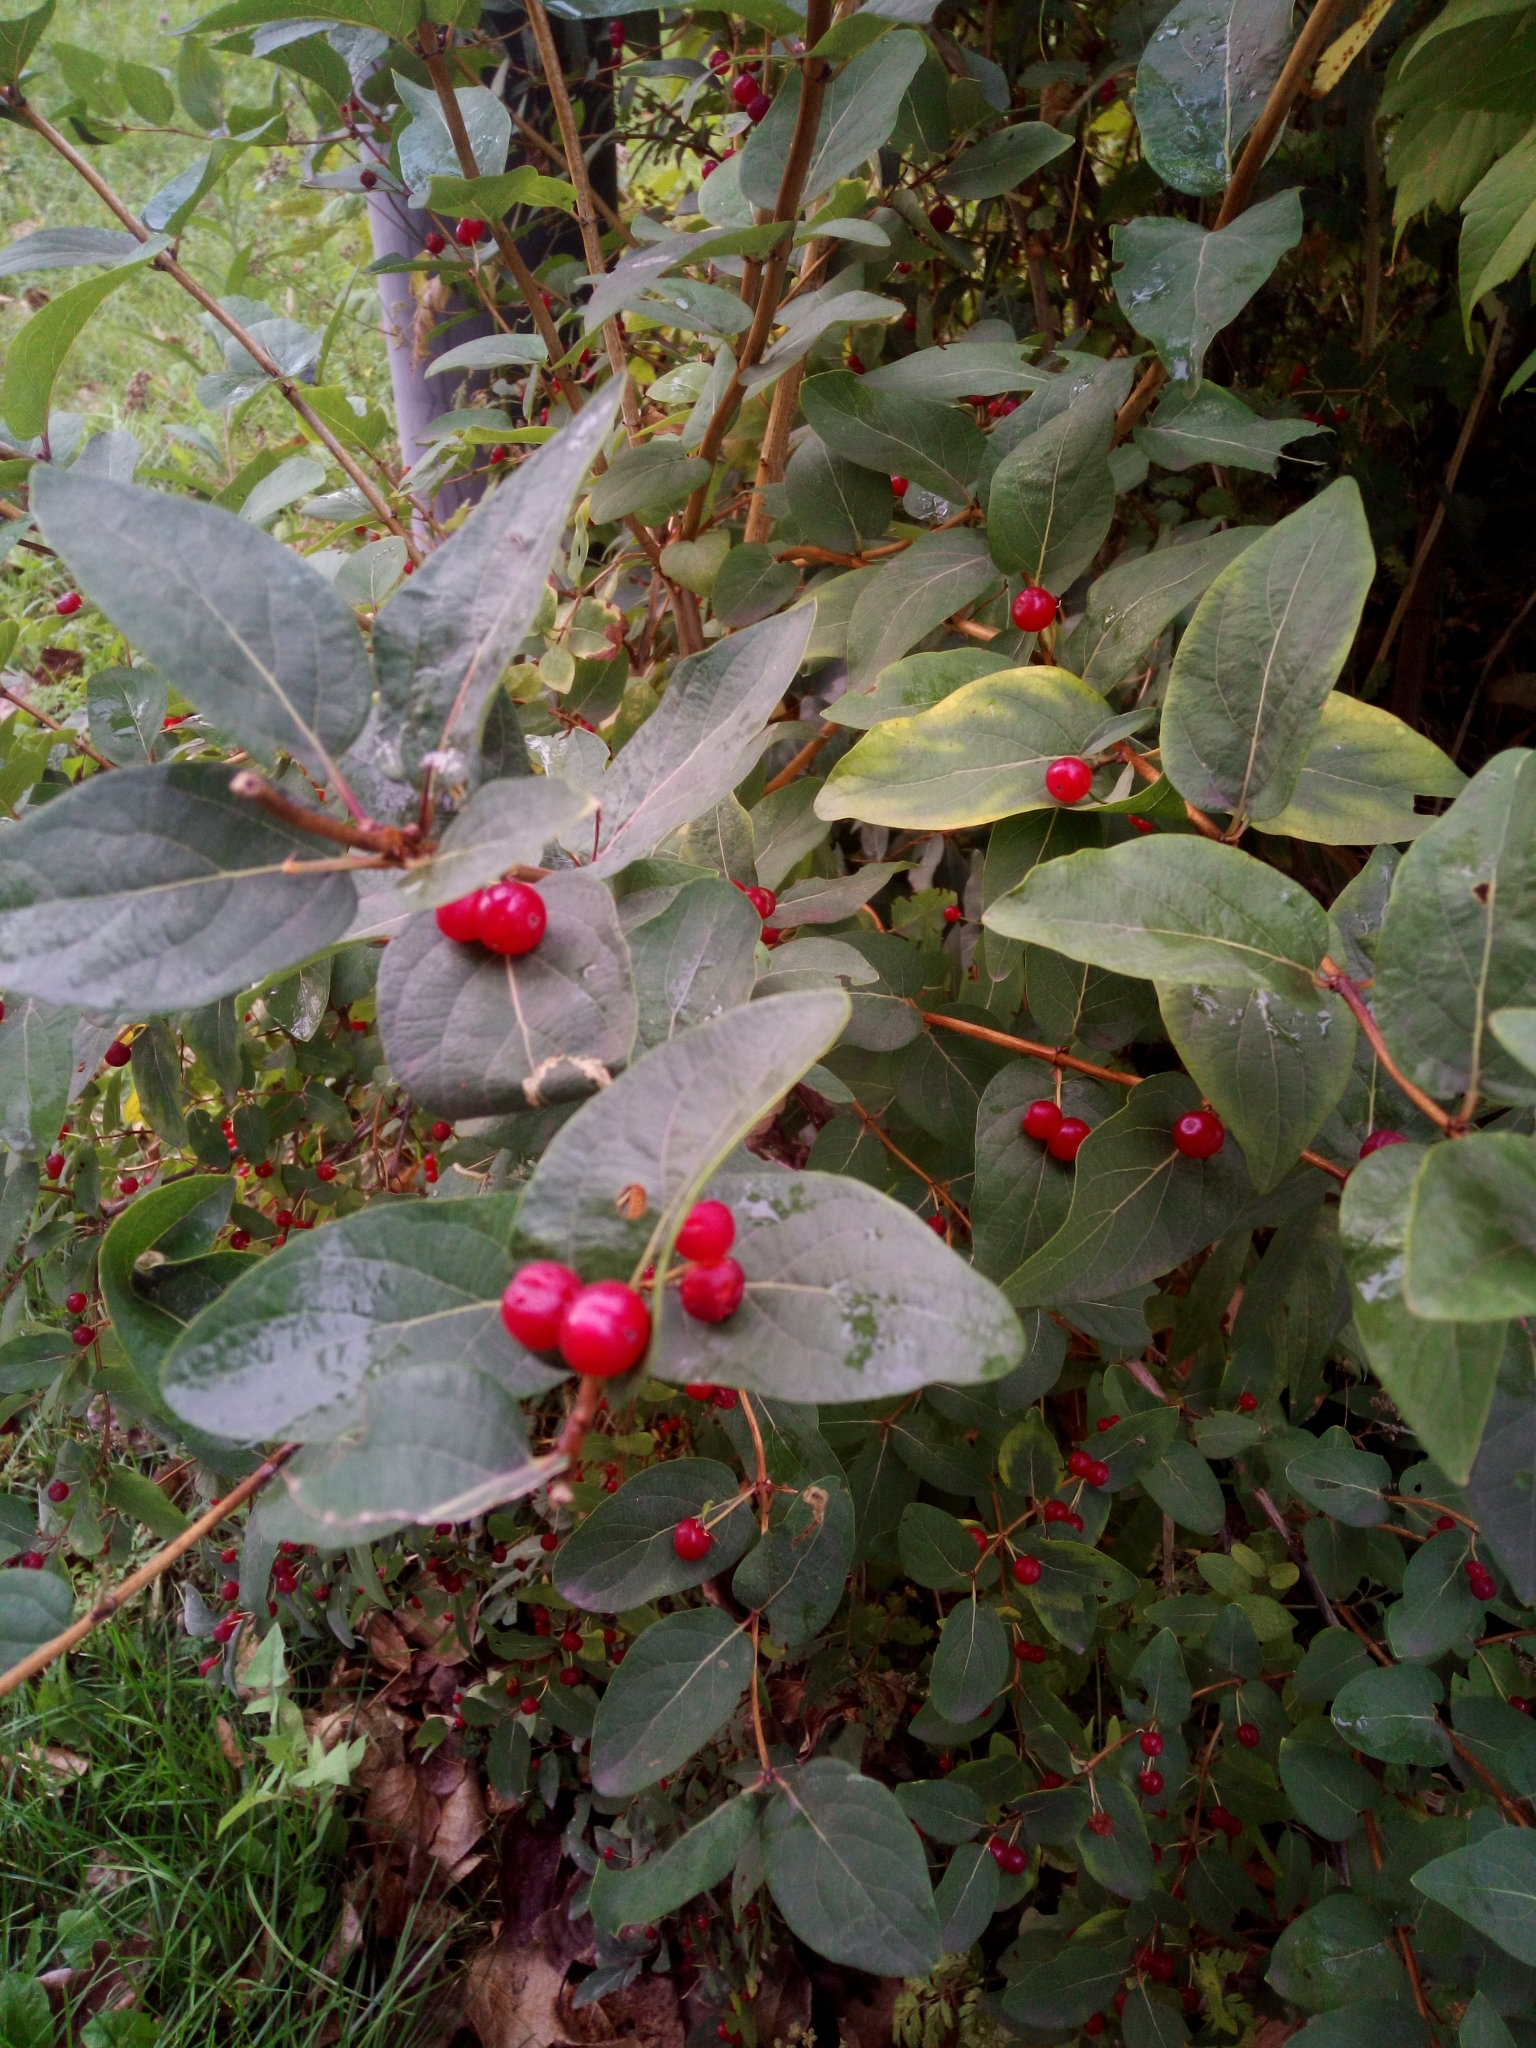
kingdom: Plantae
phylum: Tracheophyta
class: Magnoliopsida
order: Dipsacales
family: Caprifoliaceae
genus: Lonicera
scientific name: Lonicera tatarica
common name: Tatarian honeysuckle
